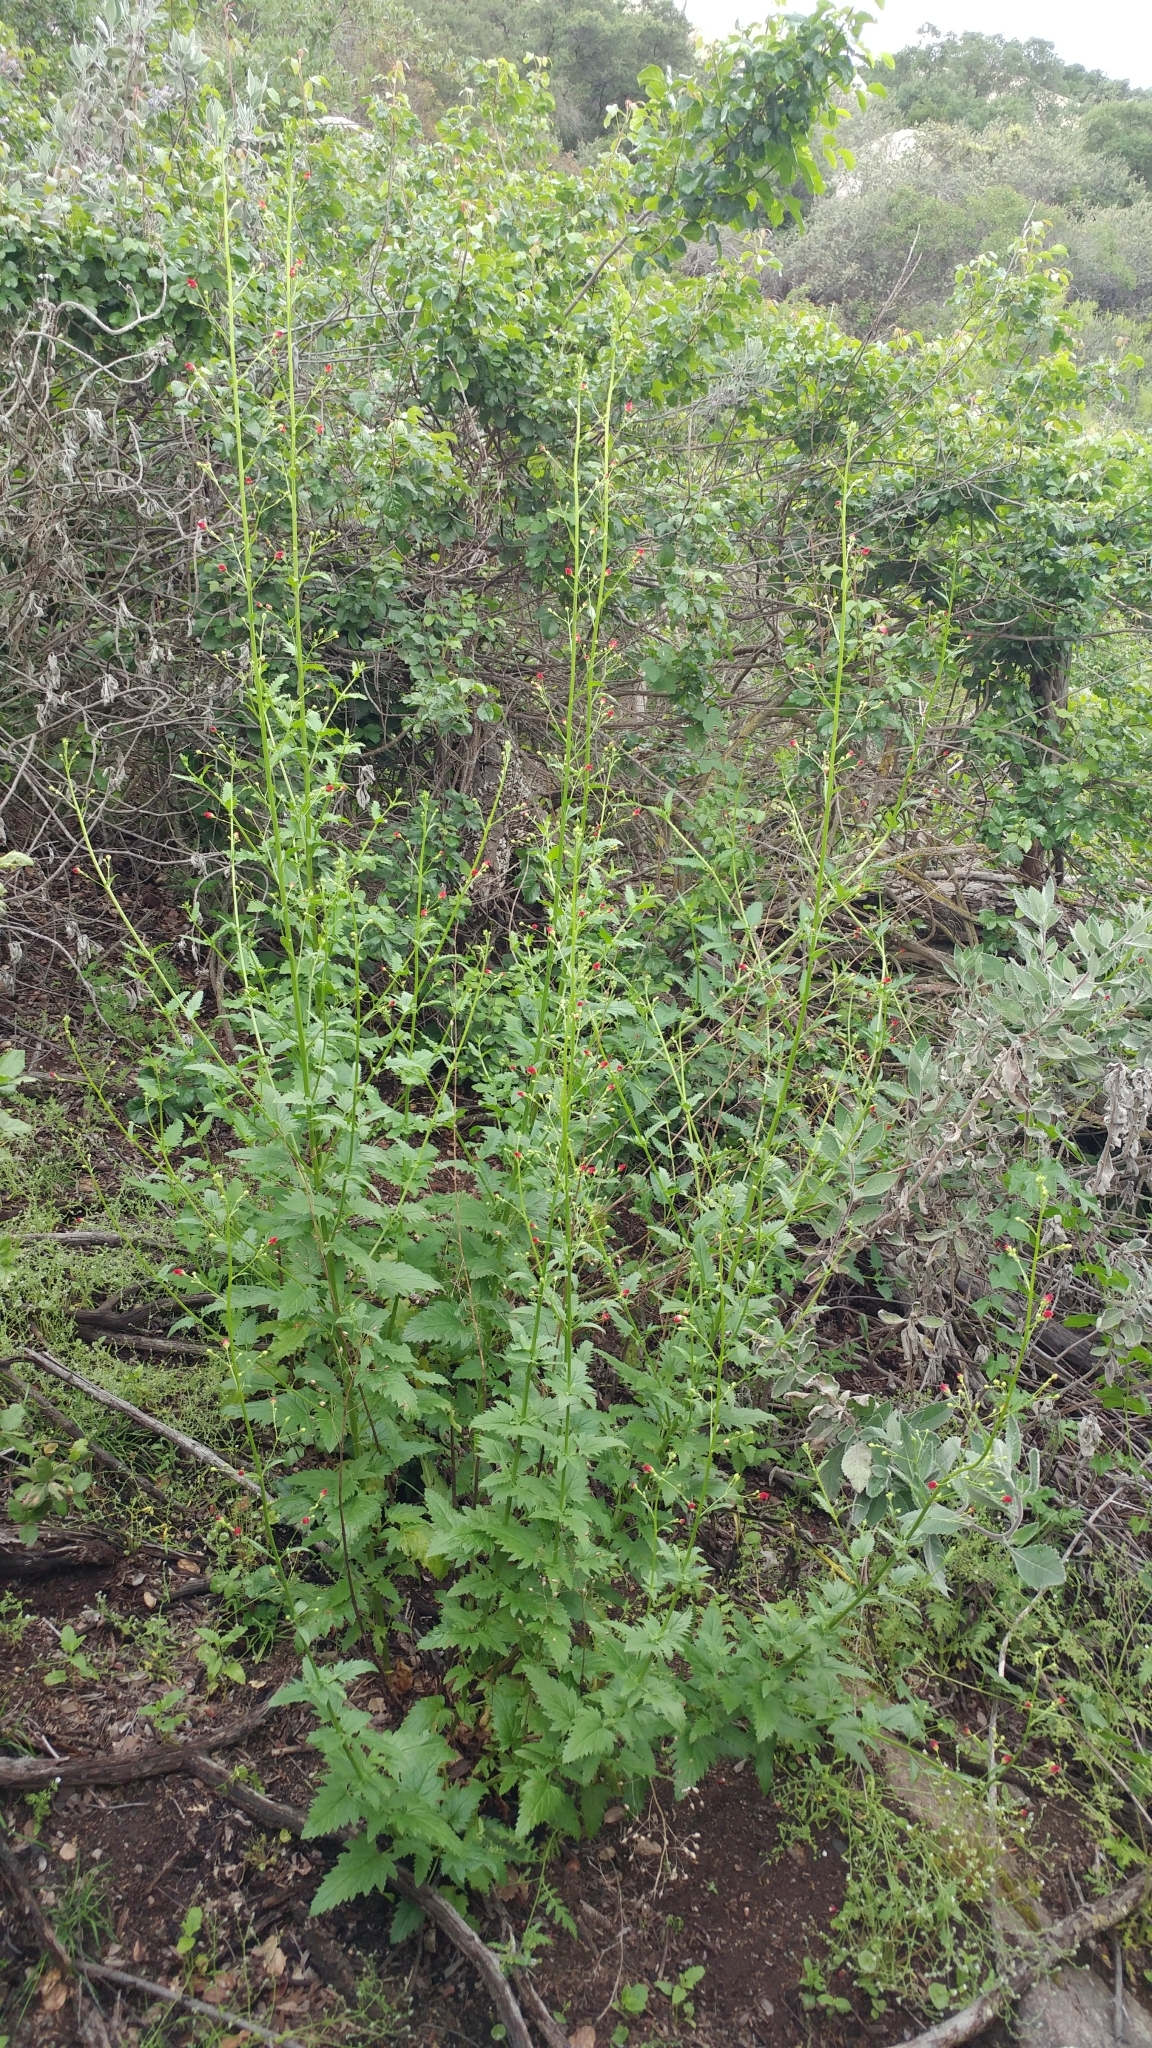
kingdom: Plantae
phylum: Tracheophyta
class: Magnoliopsida
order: Lamiales
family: Scrophulariaceae
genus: Scrophularia
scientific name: Scrophularia californica
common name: California figwort
